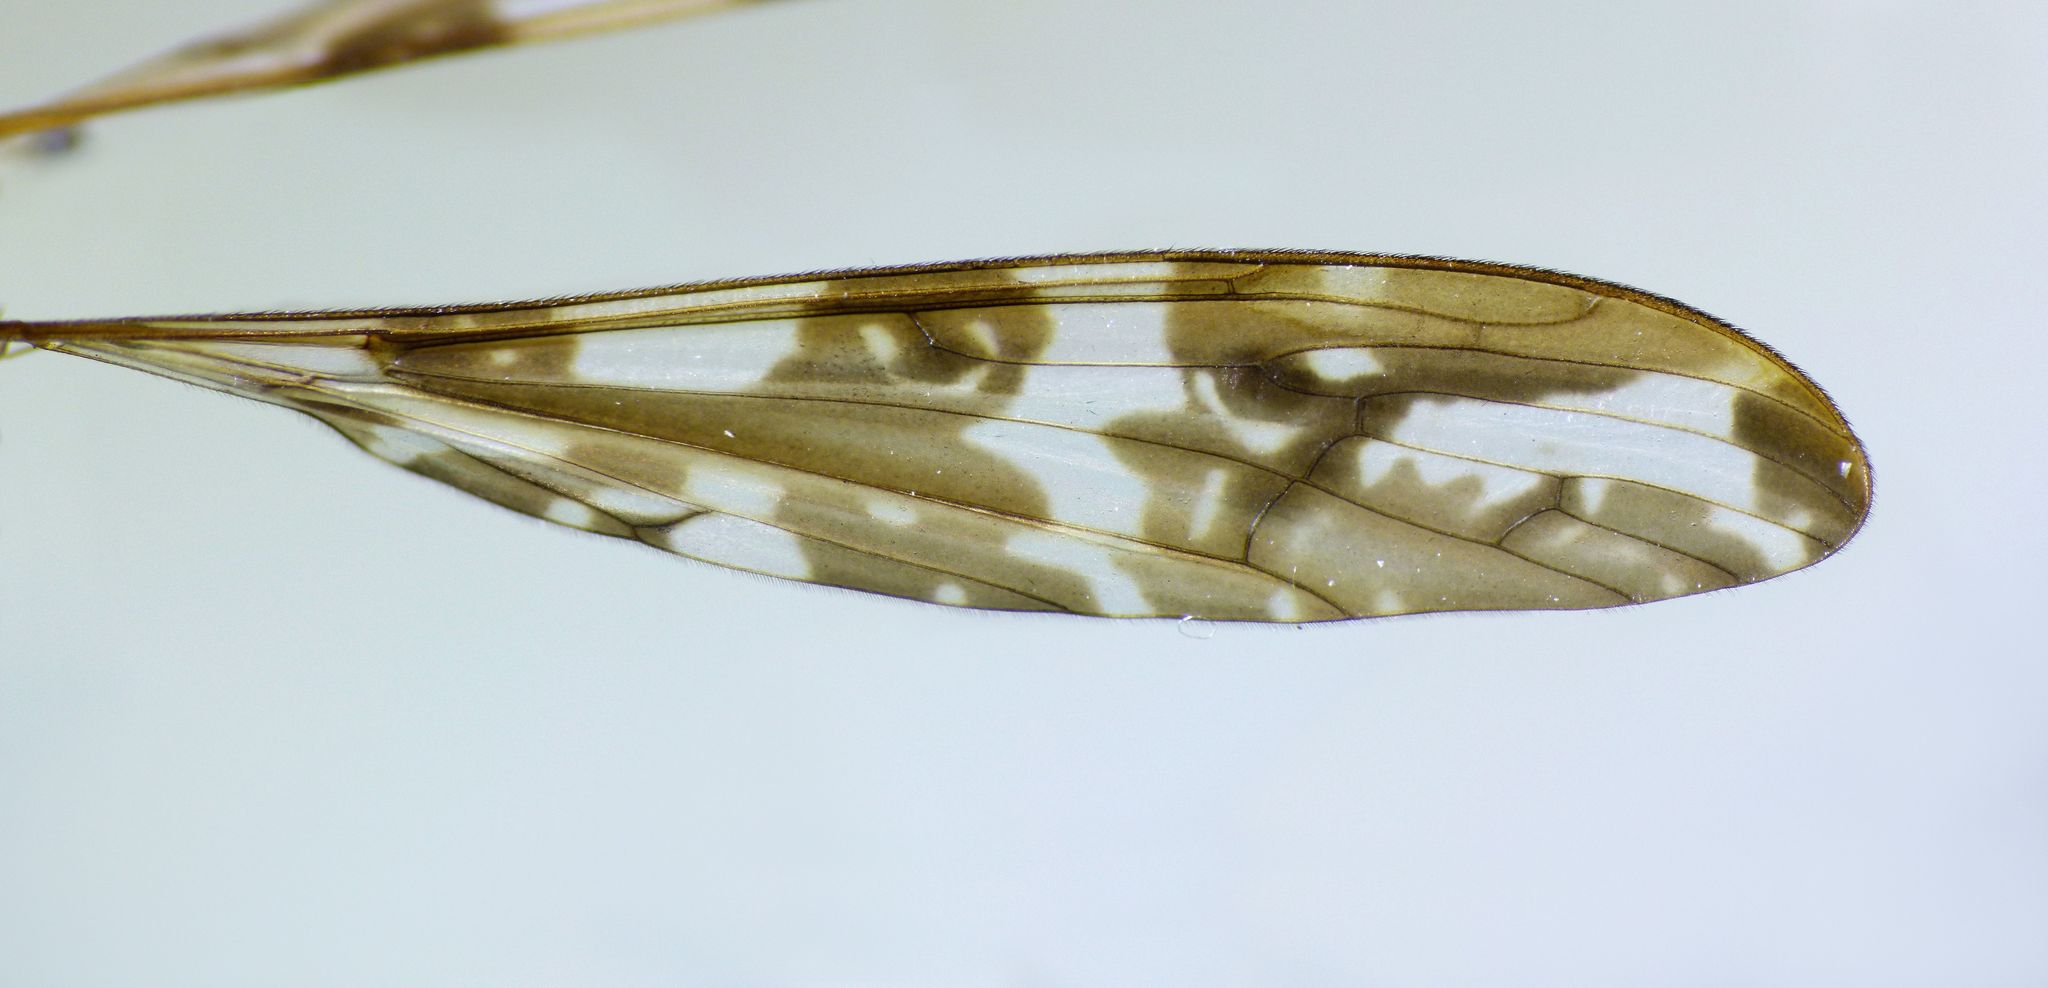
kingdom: Animalia
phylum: Arthropoda
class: Insecta
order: Diptera
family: Limoniidae
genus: Discobola
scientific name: Discobola dohrni
